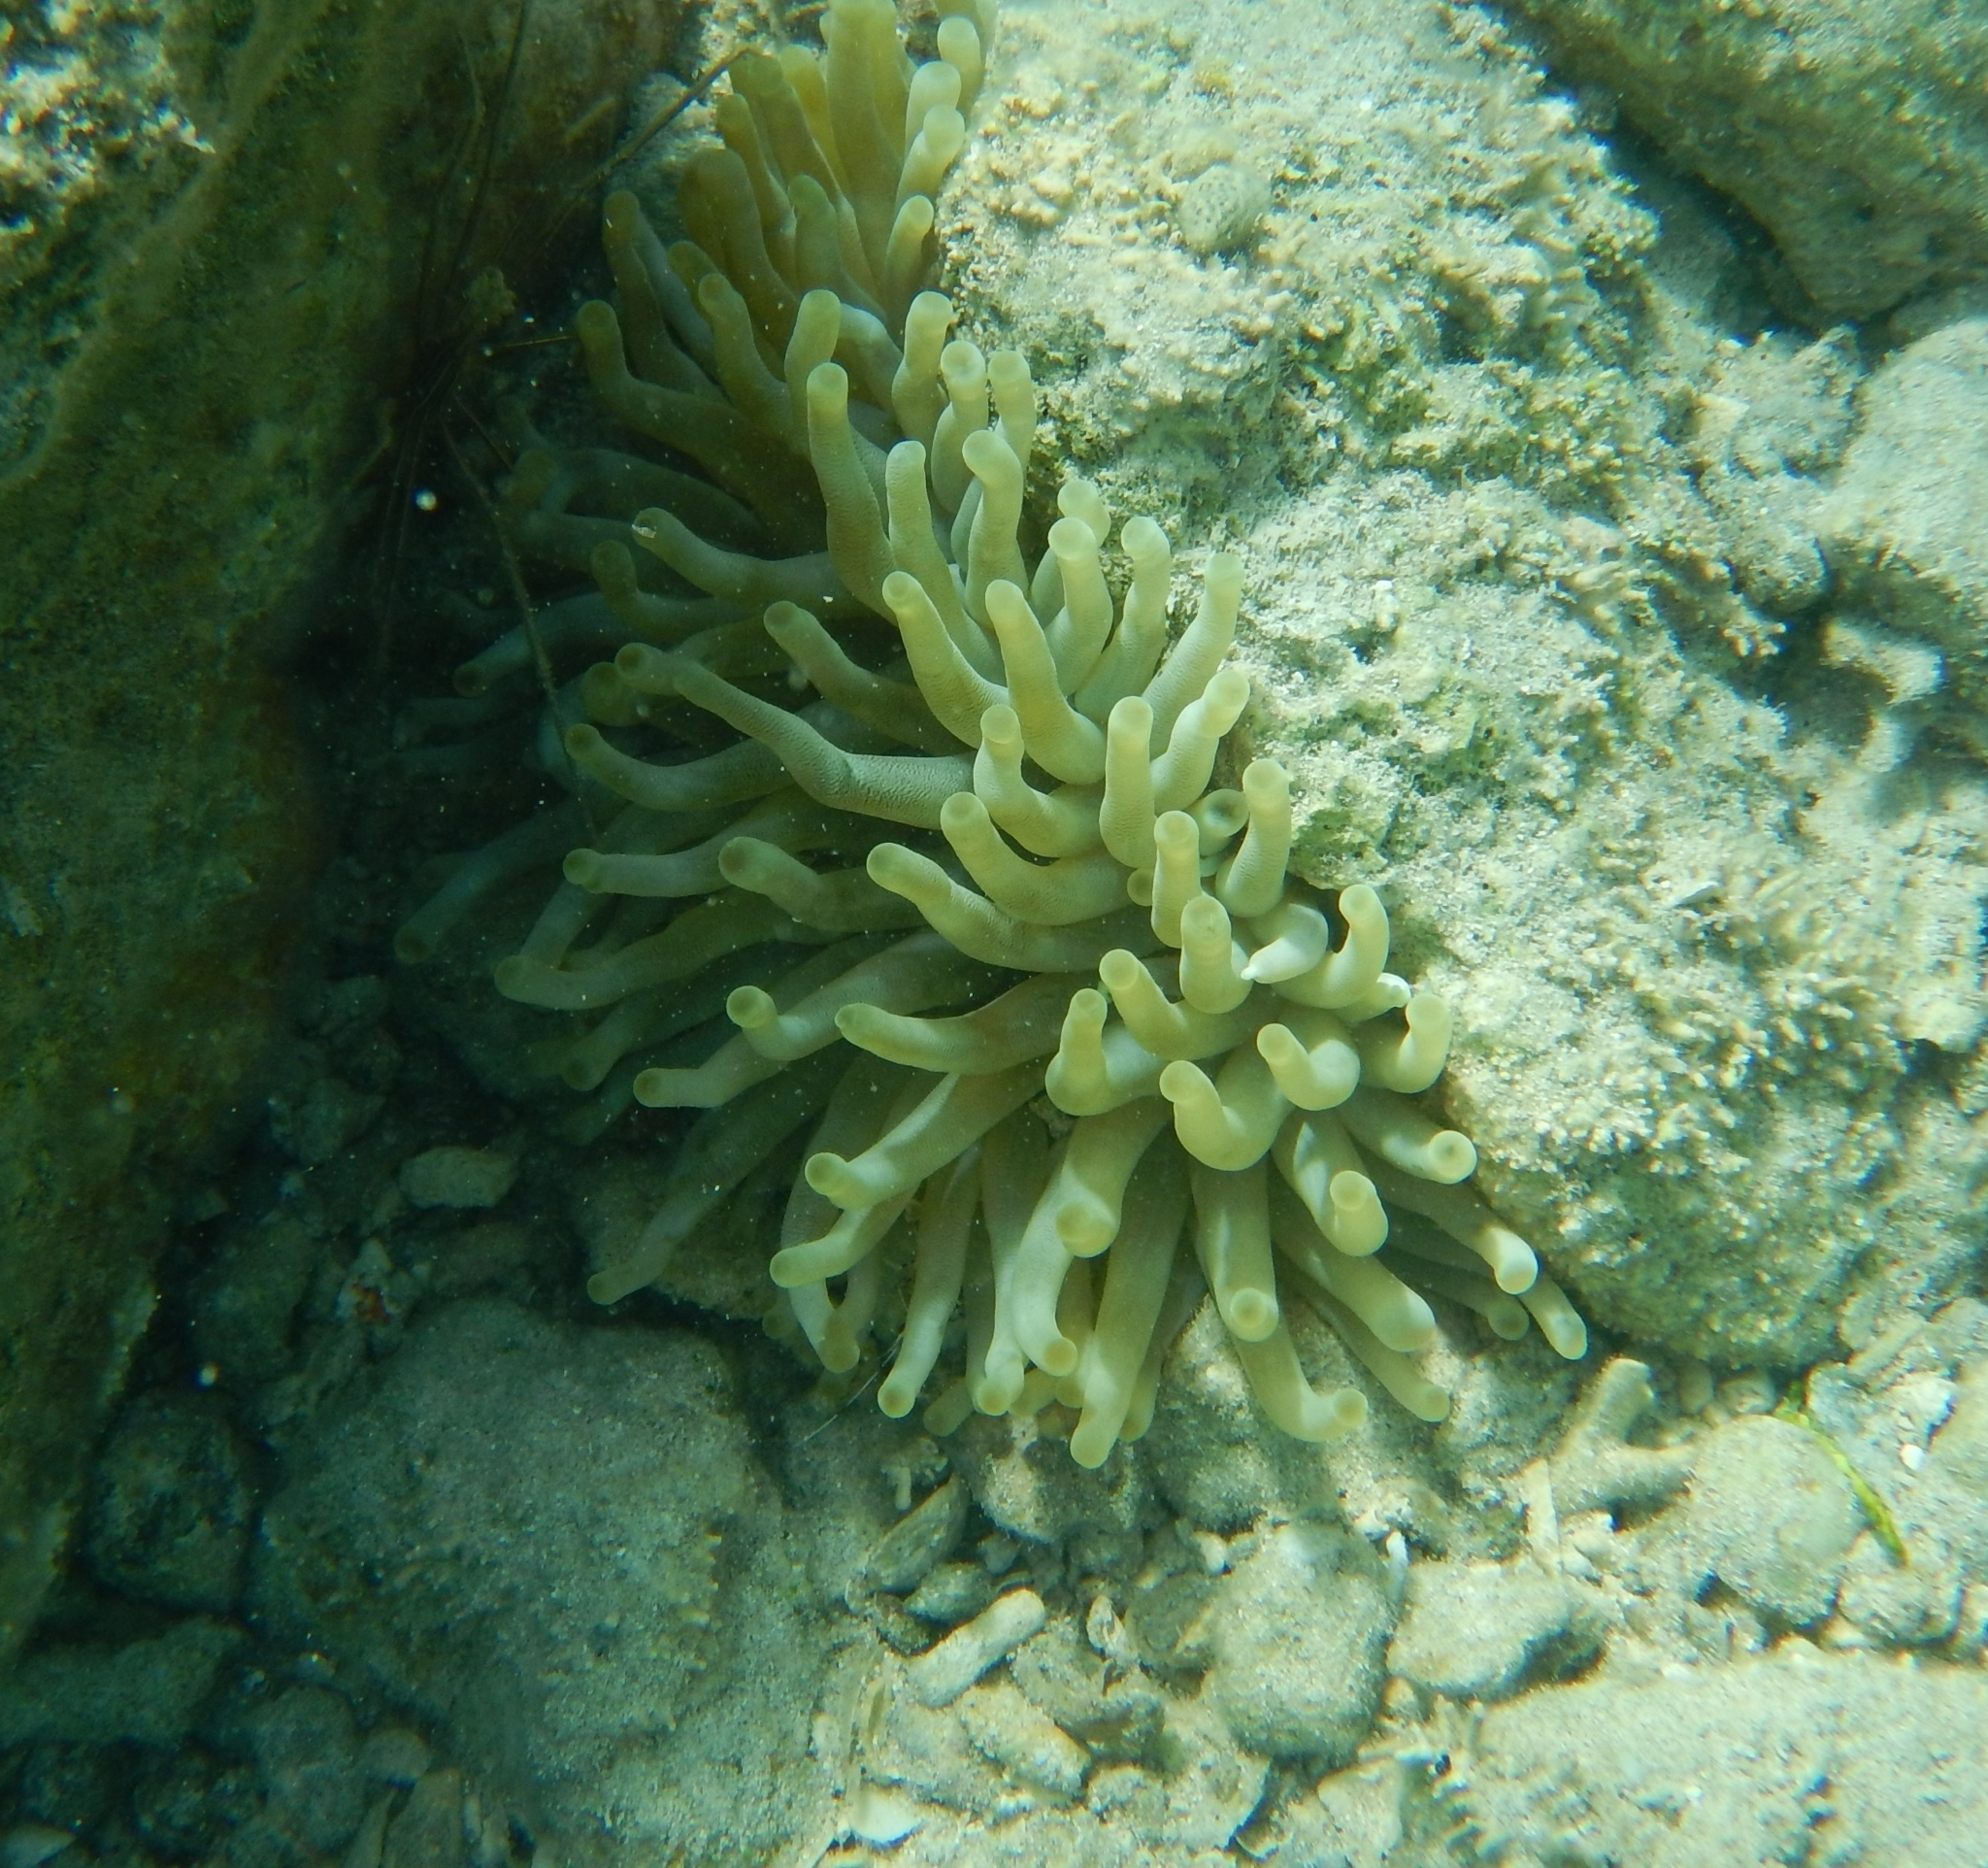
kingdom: Animalia
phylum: Cnidaria
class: Anthozoa
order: Actiniaria
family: Actiniidae
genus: Condylactis
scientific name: Condylactis gigantea
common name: Giant caribbean anemone
